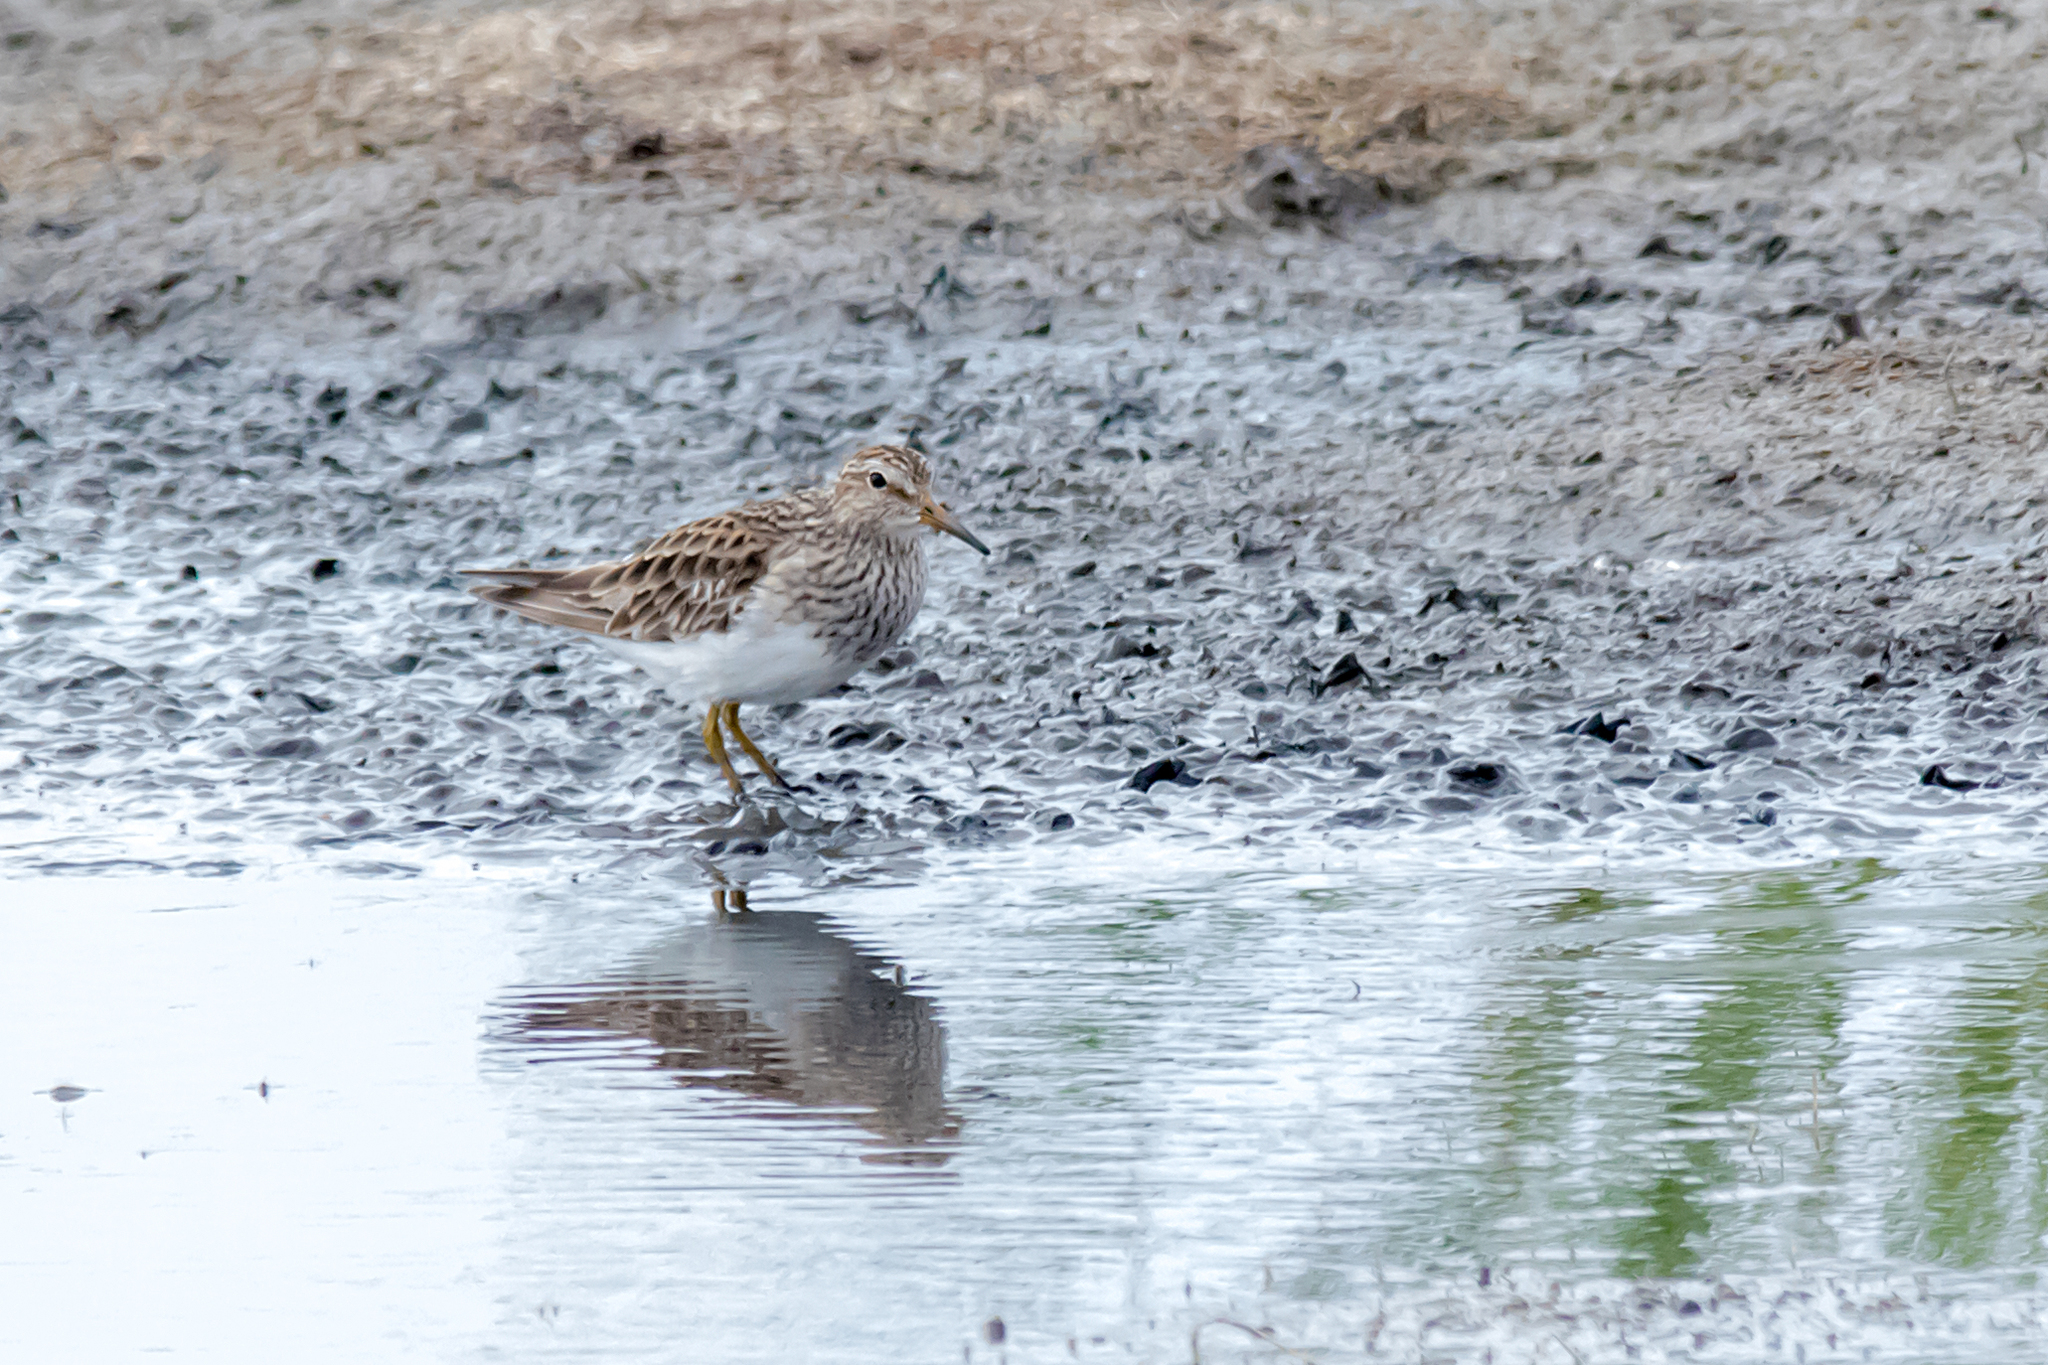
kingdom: Animalia
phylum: Chordata
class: Aves
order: Charadriiformes
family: Scolopacidae
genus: Calidris
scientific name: Calidris melanotos
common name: Pectoral sandpiper
